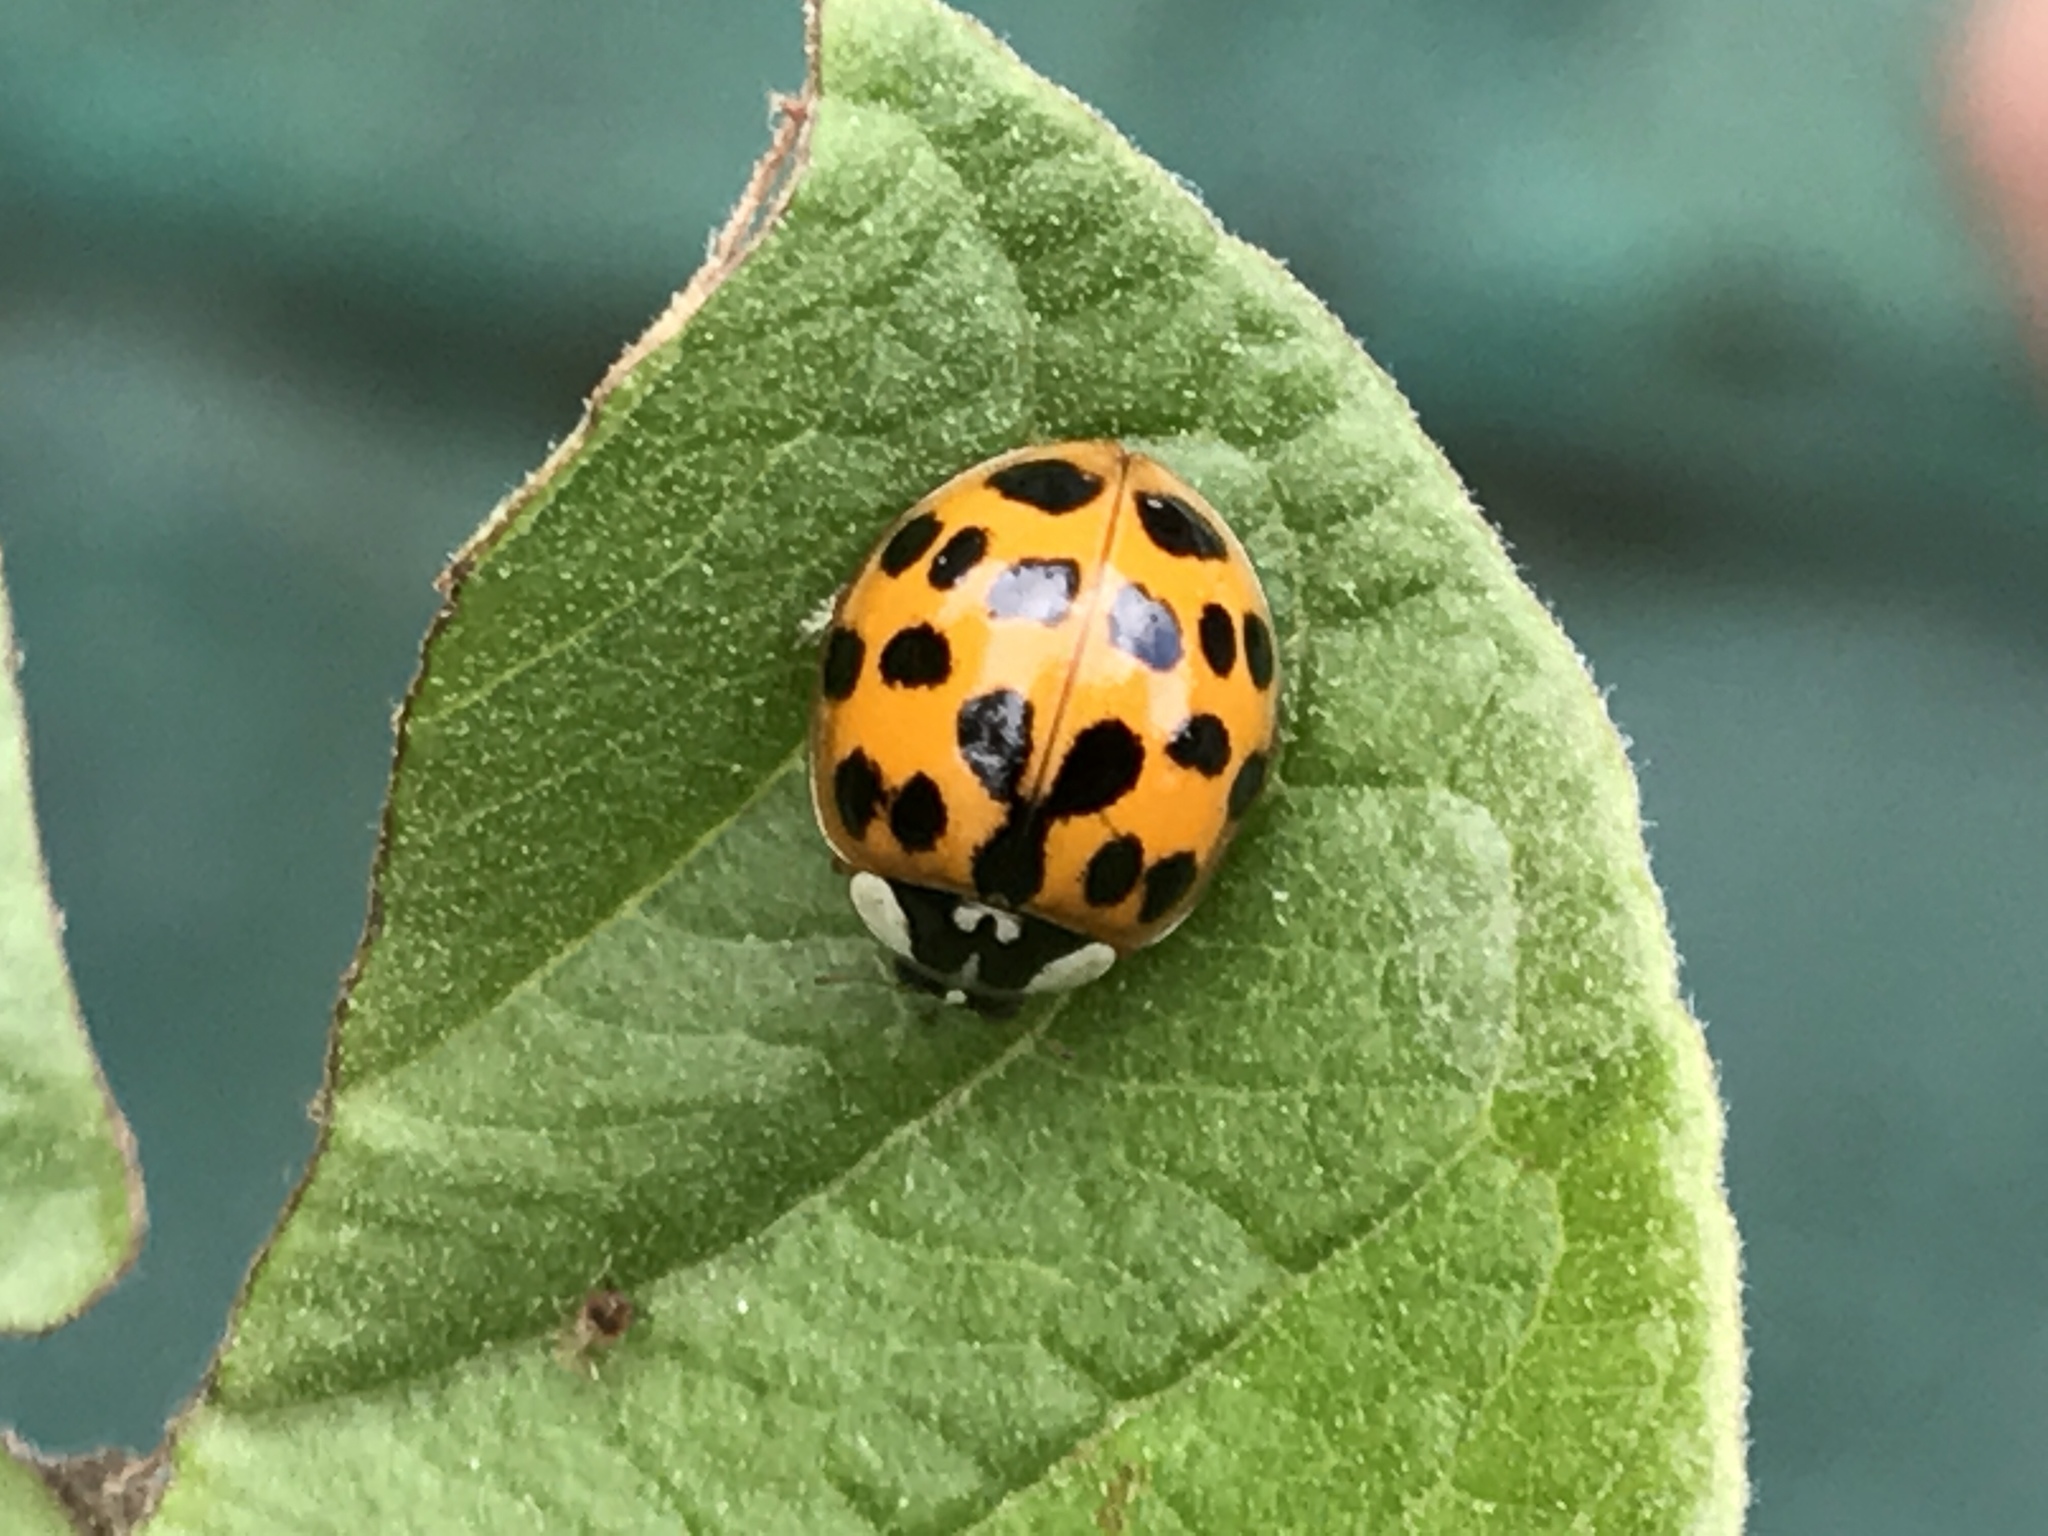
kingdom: Animalia
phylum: Arthropoda
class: Insecta
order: Coleoptera
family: Coccinellidae
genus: Harmonia
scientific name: Harmonia axyridis
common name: Harlequin ladybird
